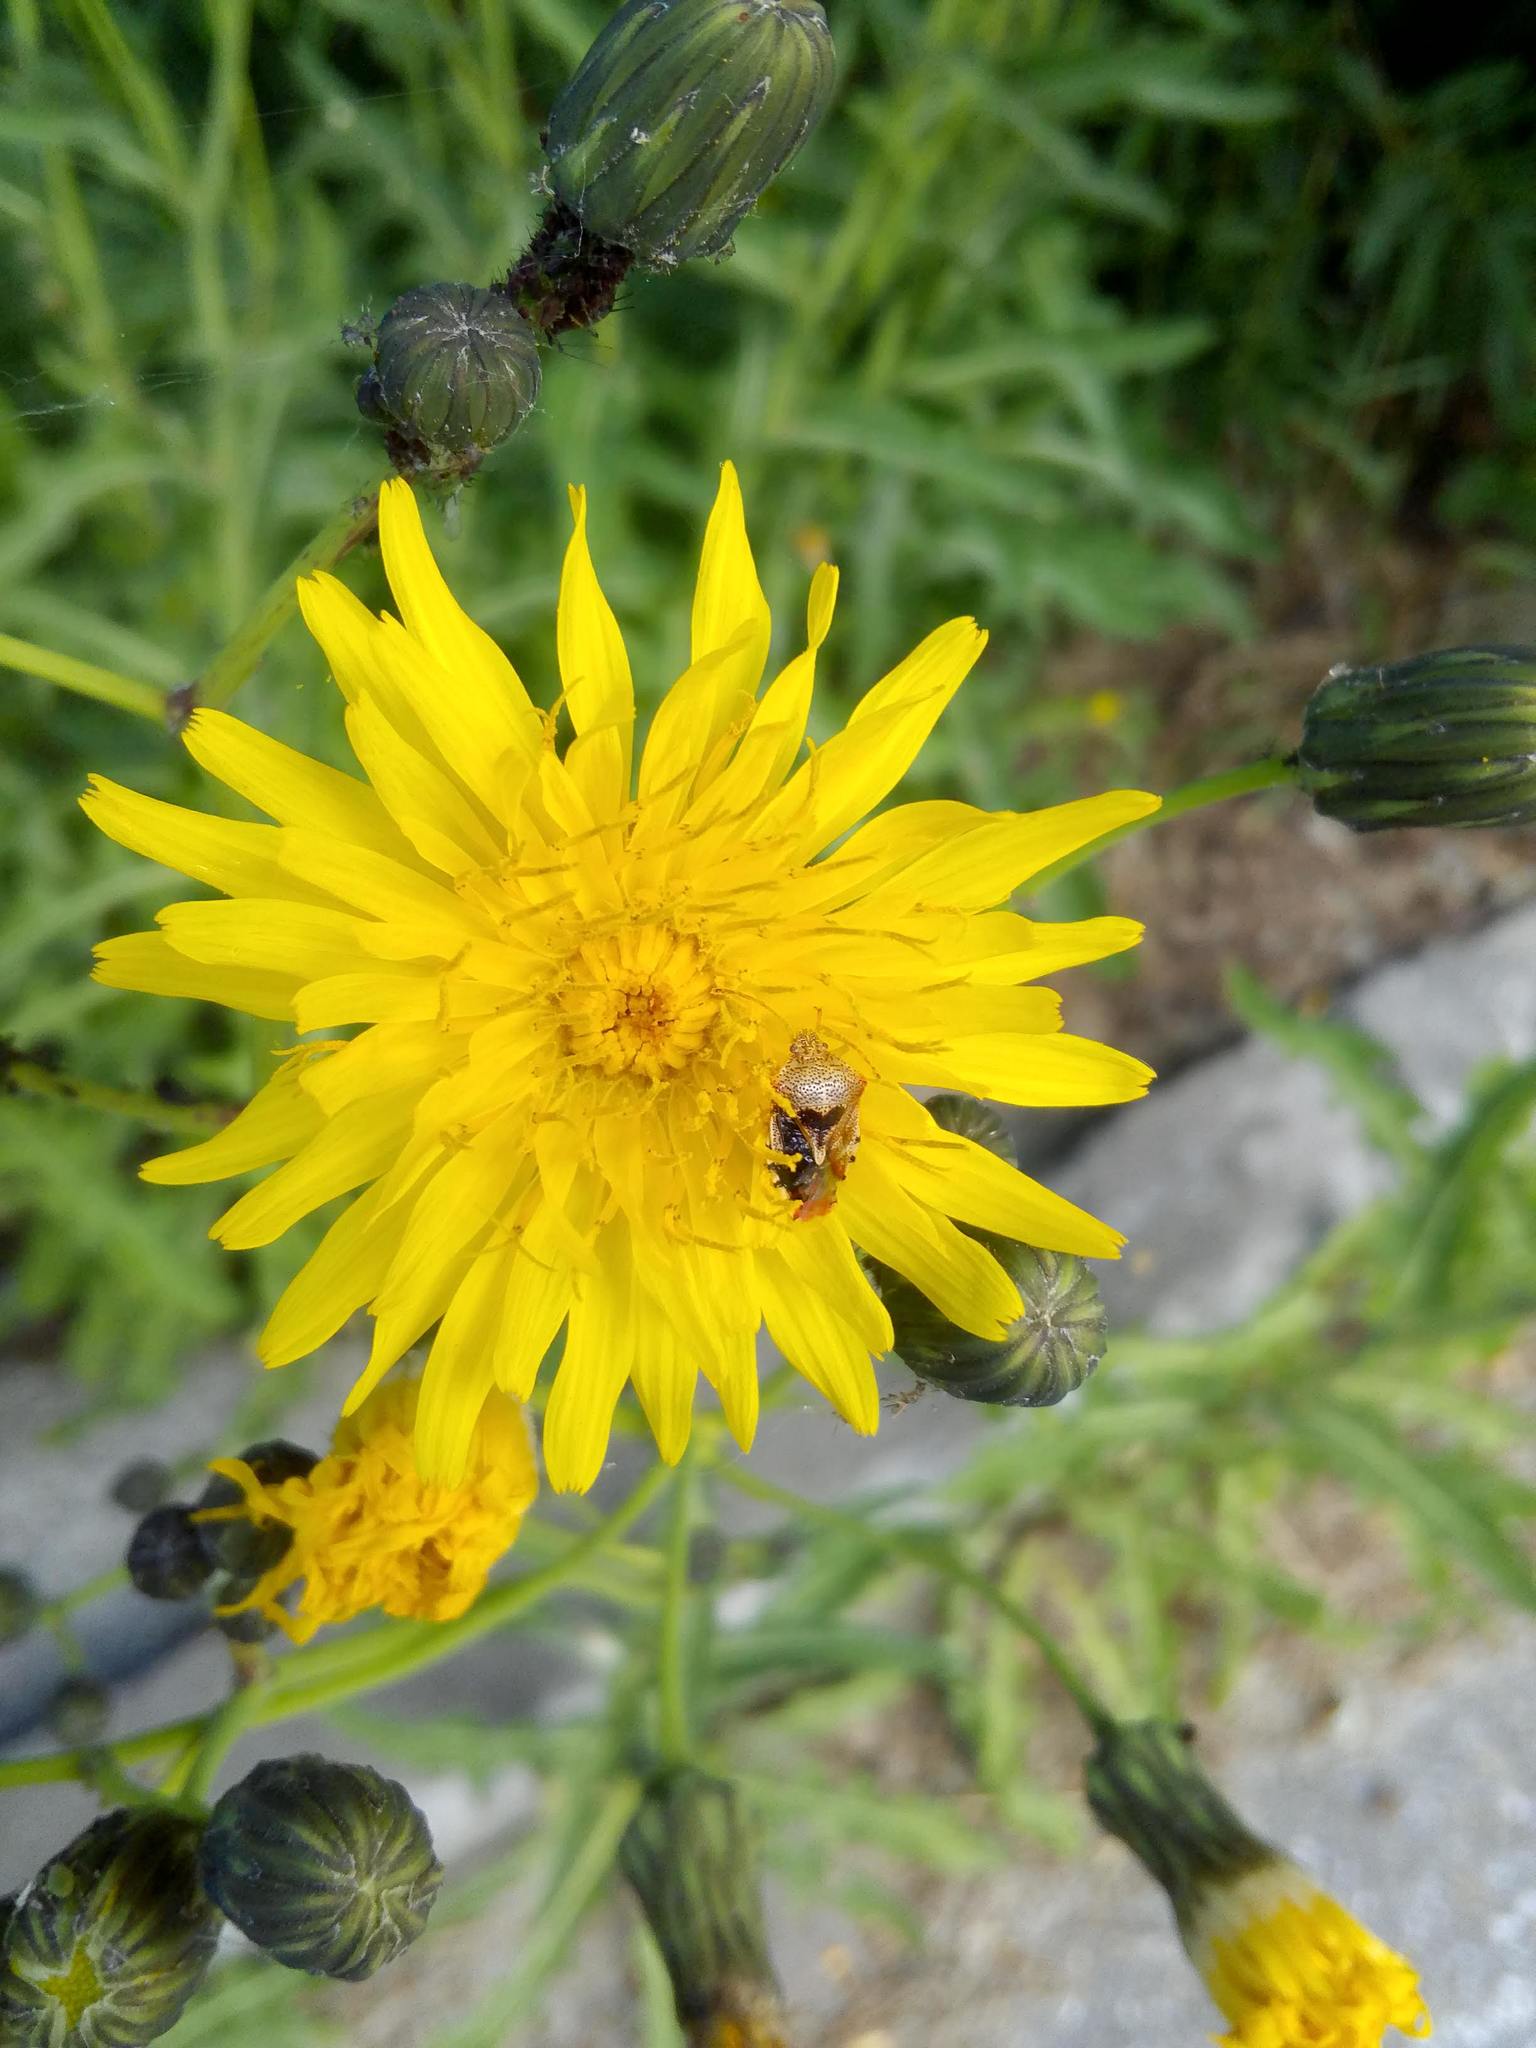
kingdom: Plantae
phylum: Tracheophyta
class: Magnoliopsida
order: Asterales
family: Asteraceae
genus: Sonchus
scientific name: Sonchus arvensis
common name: Perennial sow-thistle
